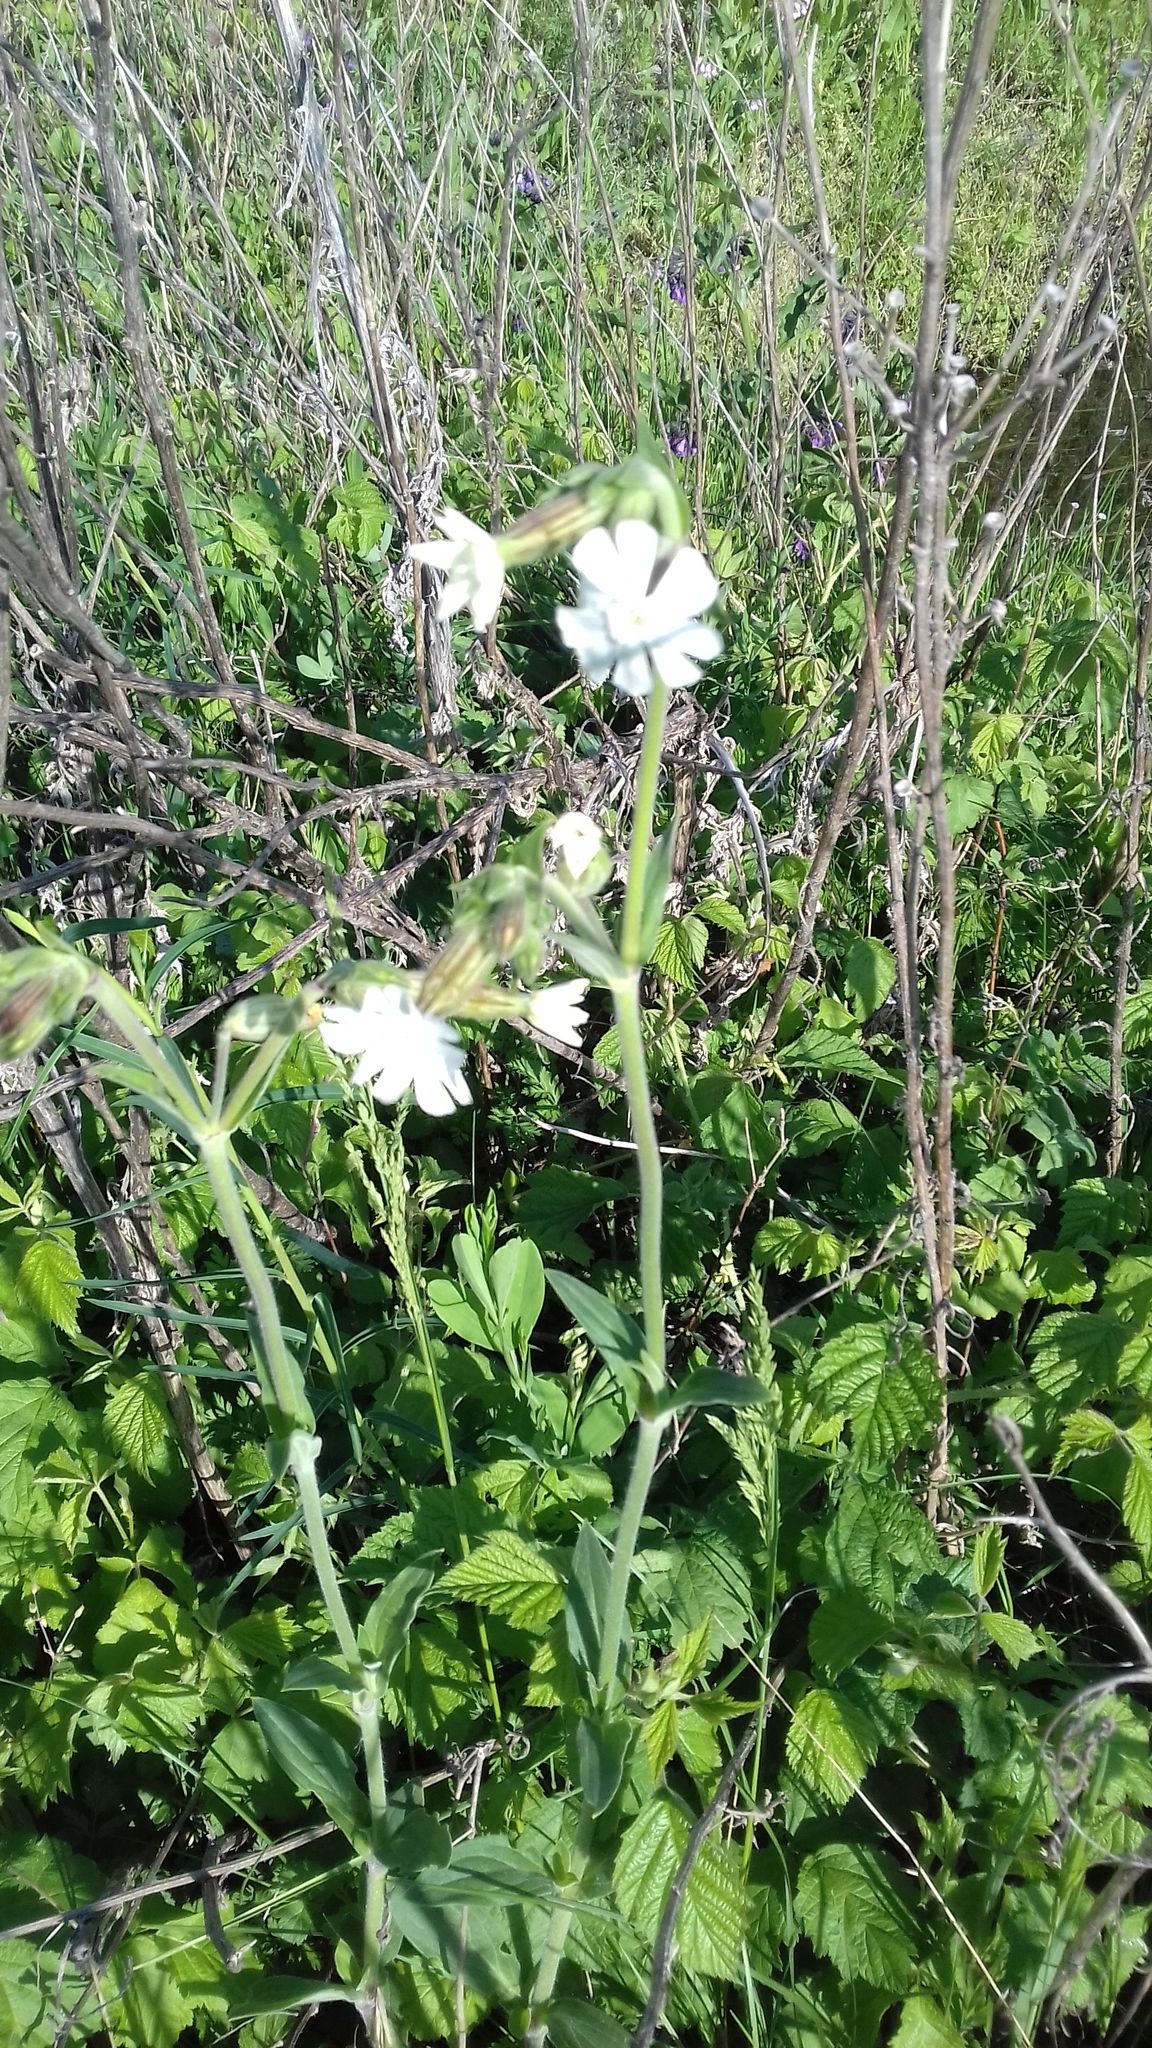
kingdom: Plantae
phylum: Tracheophyta
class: Magnoliopsida
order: Caryophyllales
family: Caryophyllaceae
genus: Silene
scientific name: Silene latifolia
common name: White campion
